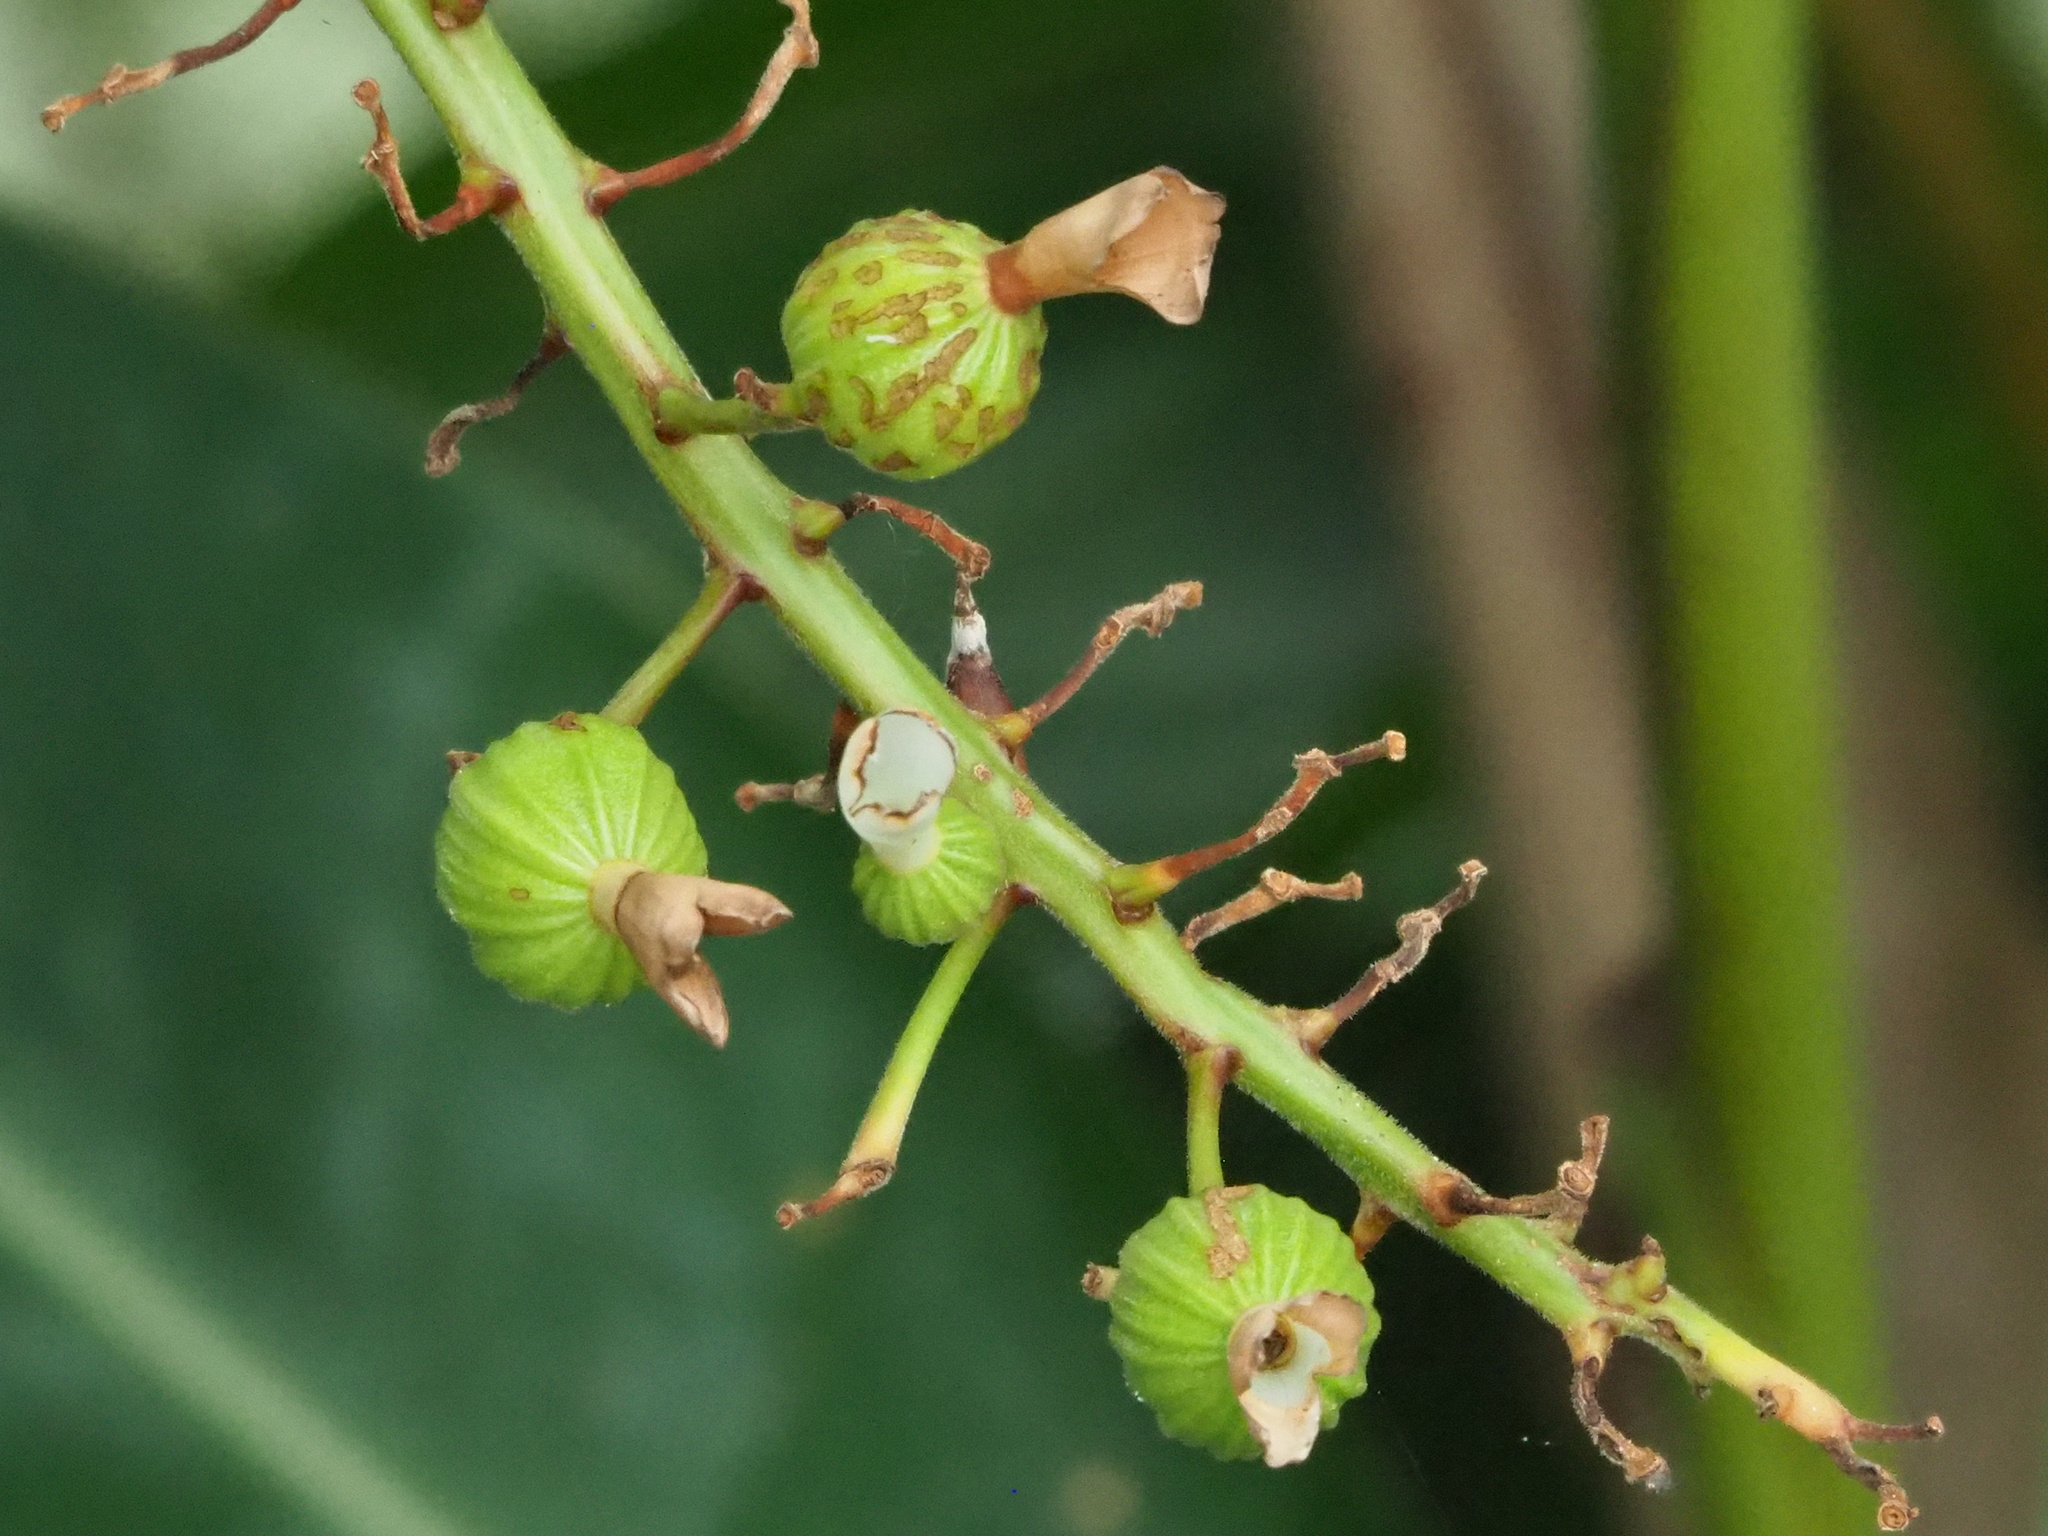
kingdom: Plantae
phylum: Tracheophyta
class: Liliopsida
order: Zingiberales
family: Zingiberaceae
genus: Alpinia
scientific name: Alpinia zerumbet
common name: Shellplant
